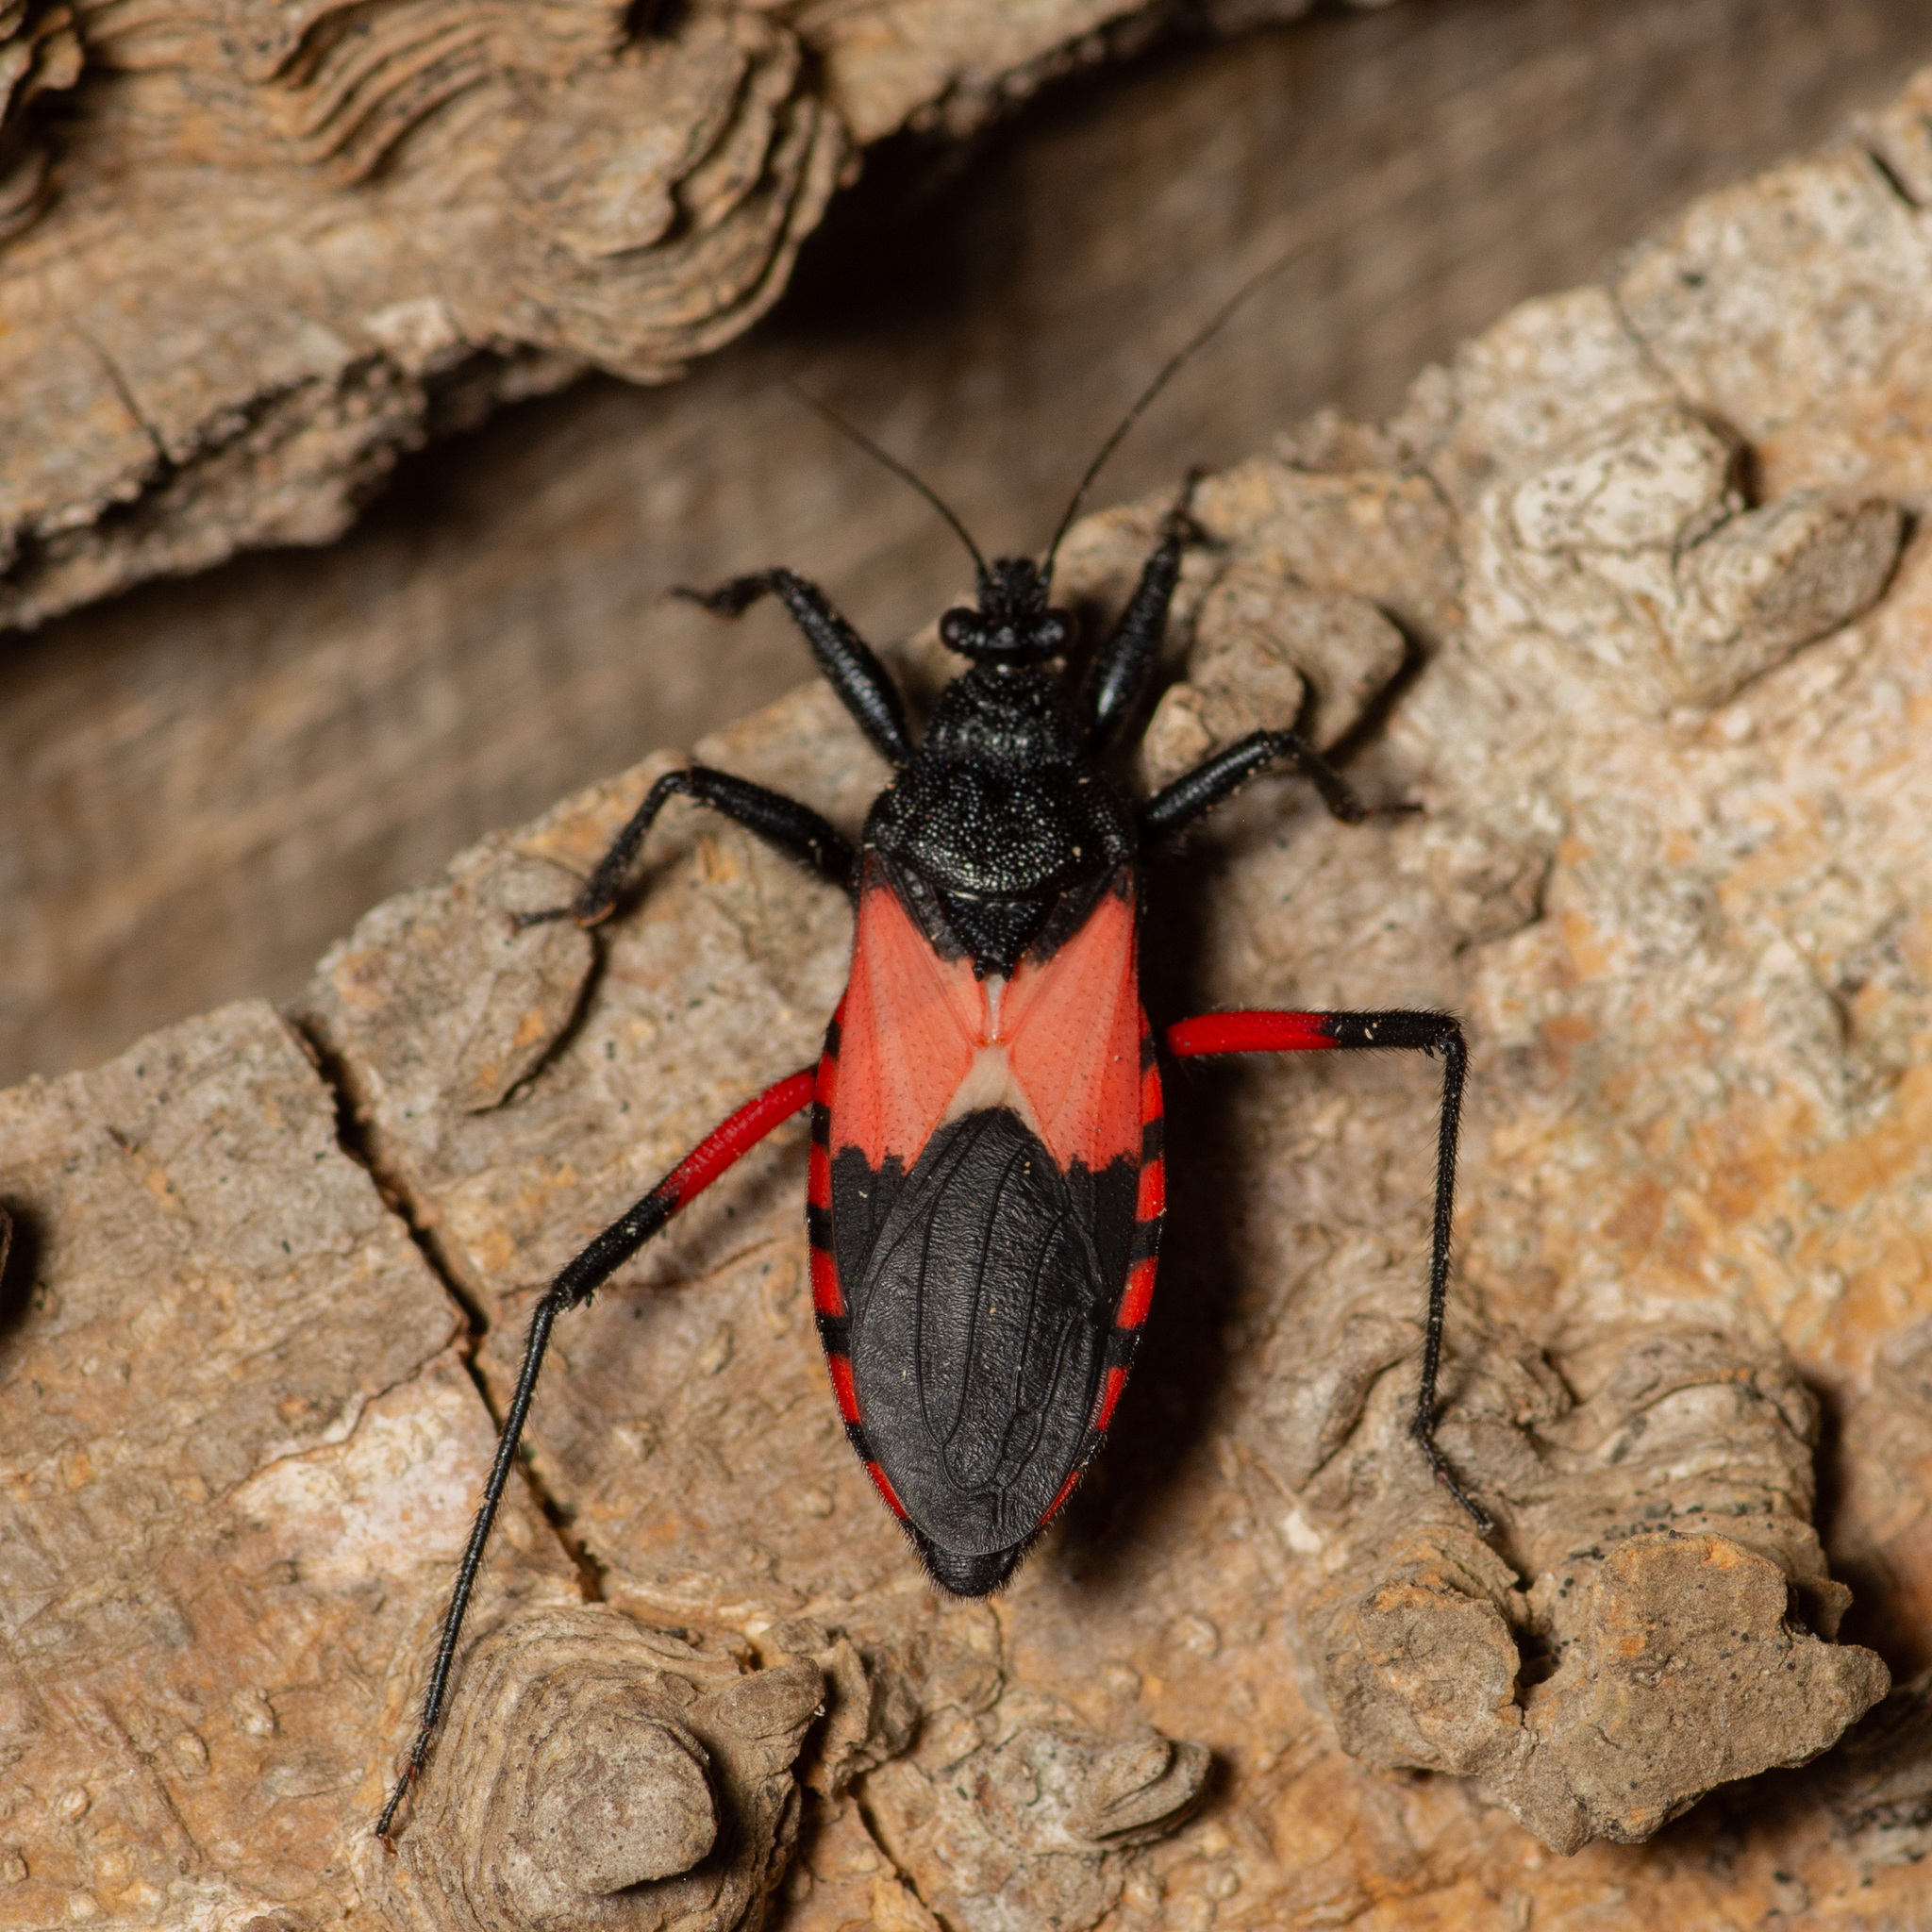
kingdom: Animalia
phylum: Arthropoda
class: Insecta
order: Hemiptera
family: Reduviidae
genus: Microtomus
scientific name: Microtomus purcis
